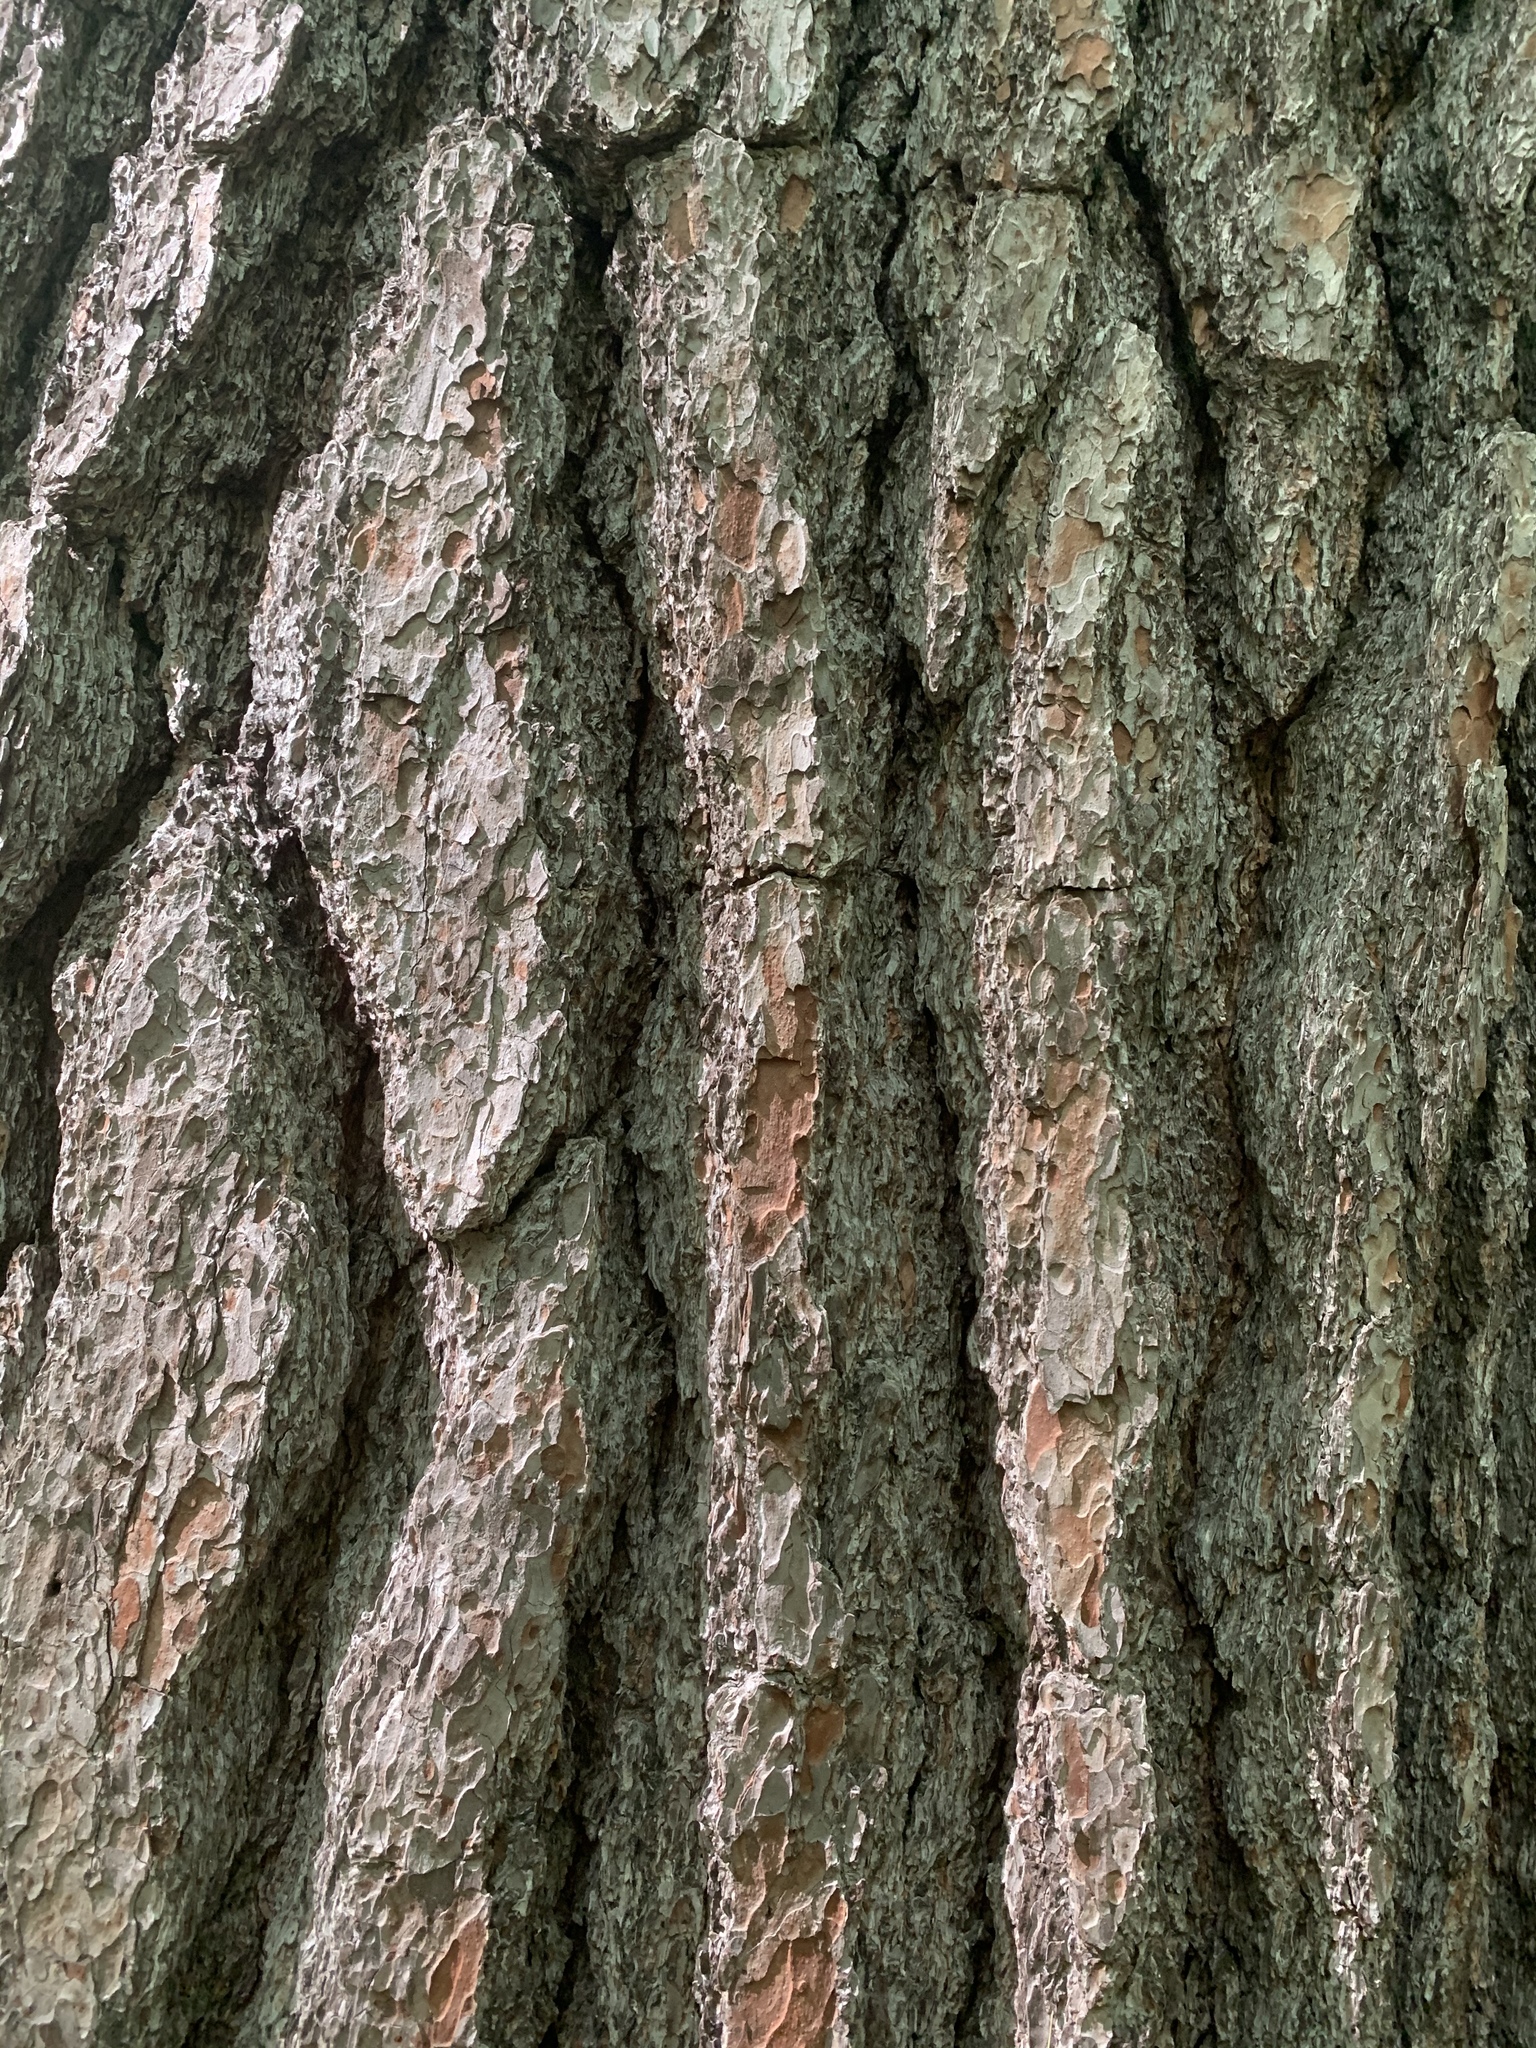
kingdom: Plantae
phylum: Tracheophyta
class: Pinopsida
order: Pinales
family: Pinaceae
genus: Pinus
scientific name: Pinus strobus
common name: Weymouth pine
